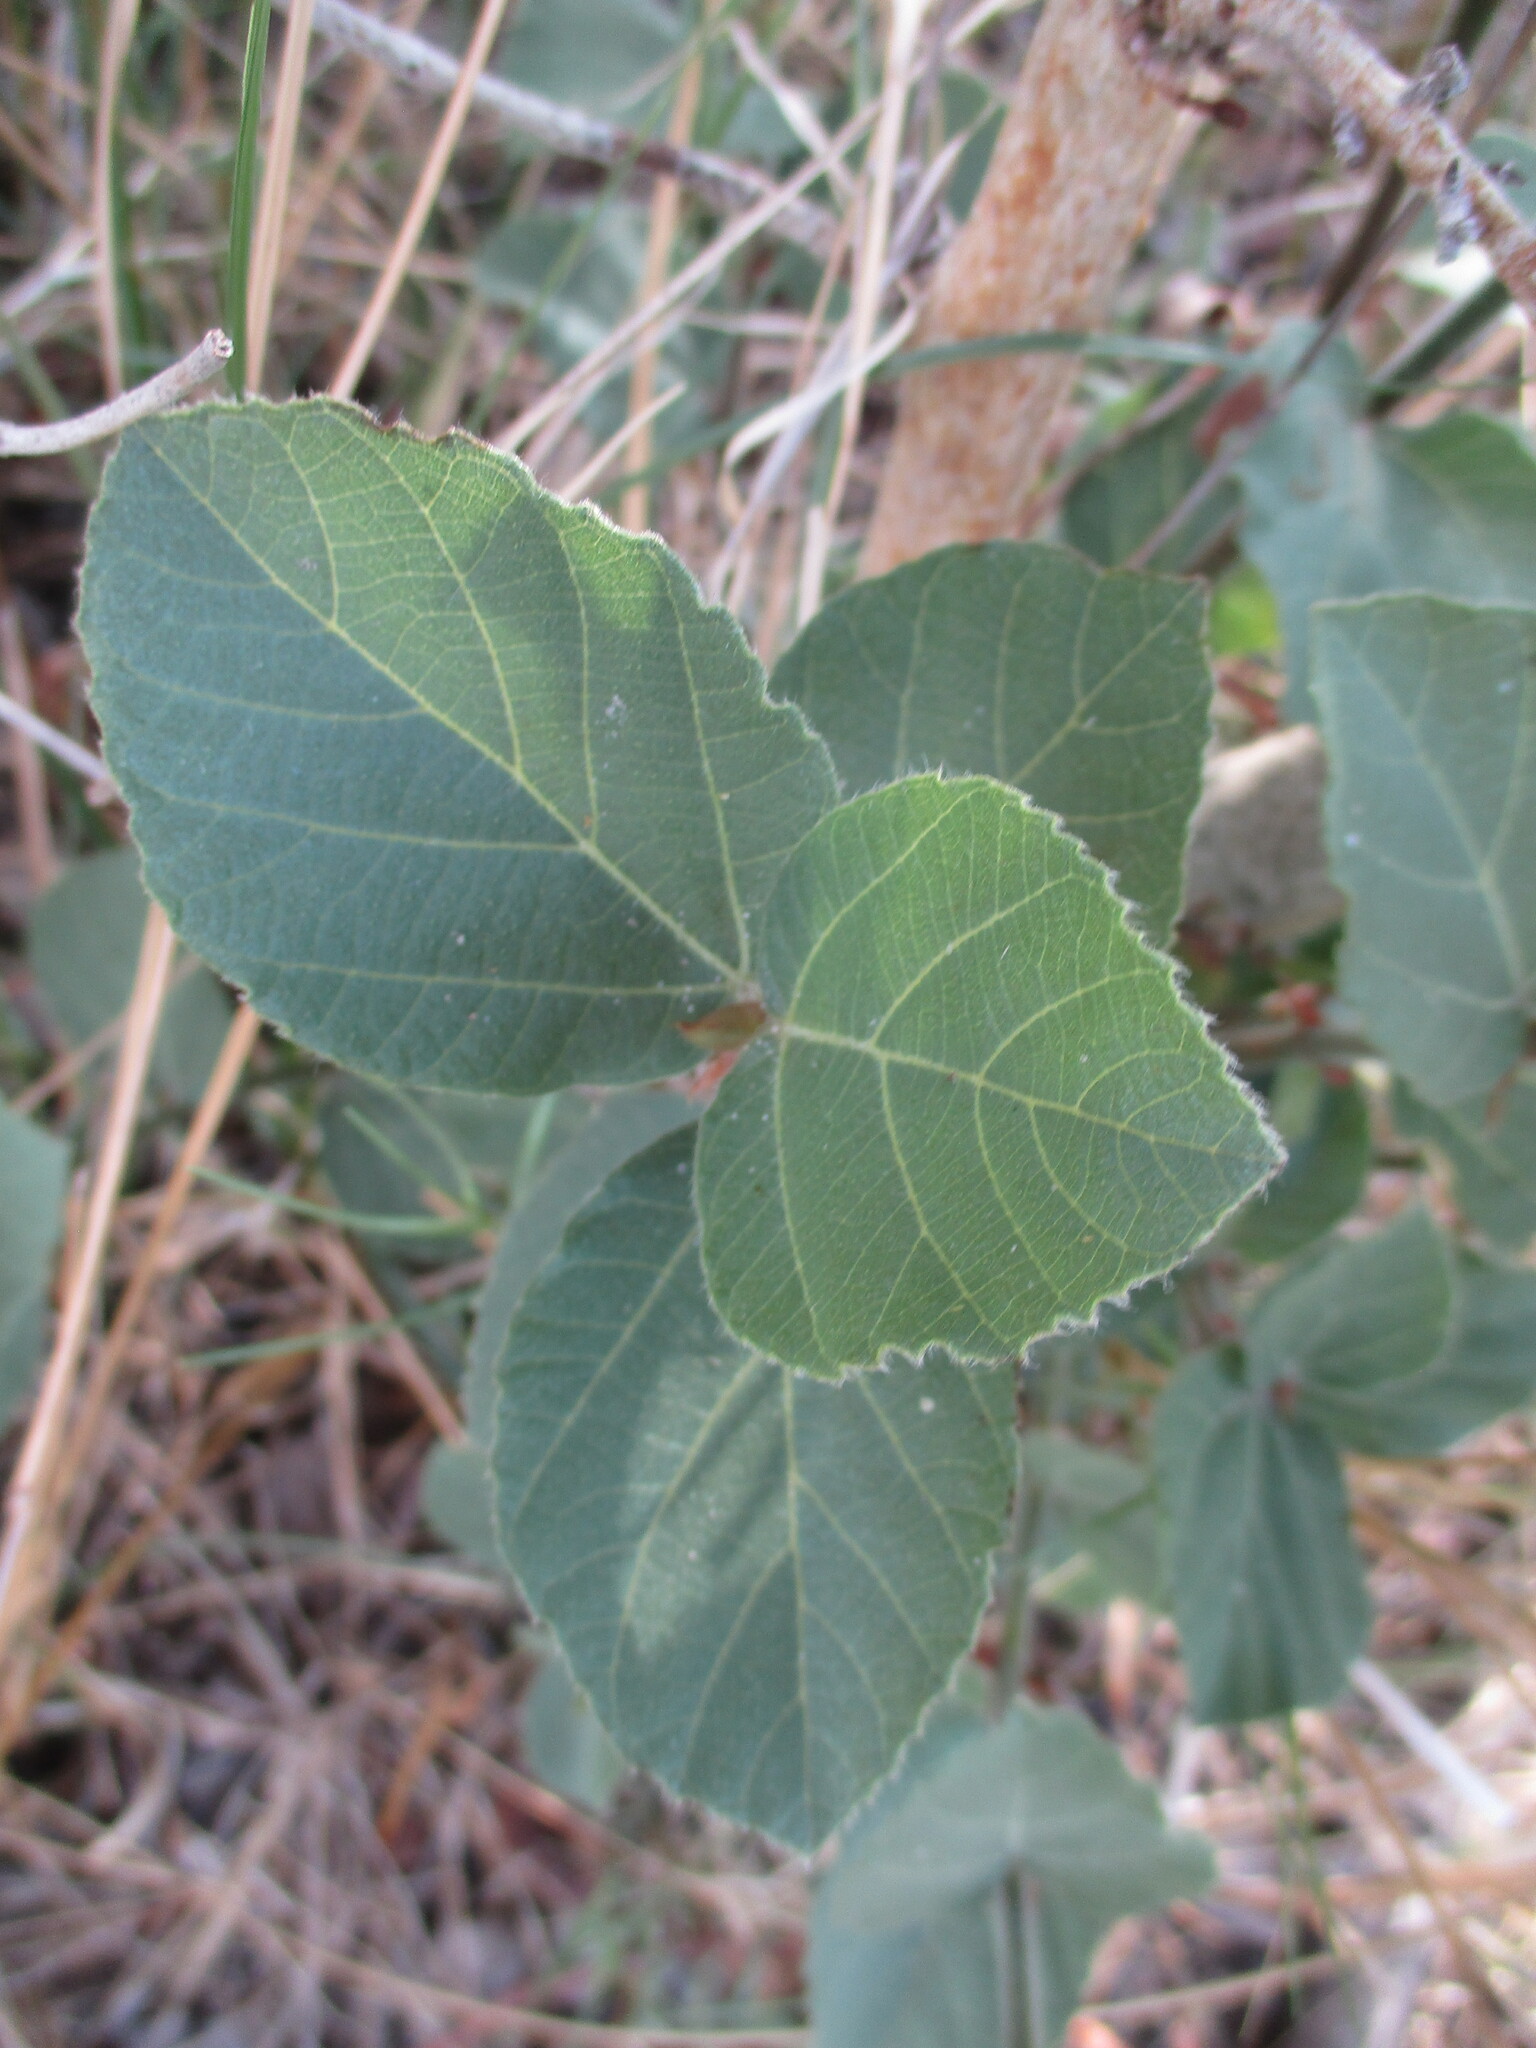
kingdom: Plantae
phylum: Tracheophyta
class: Magnoliopsida
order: Rosales
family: Moraceae
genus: Ficus
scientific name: Ficus sycomorus
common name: Sycomore
